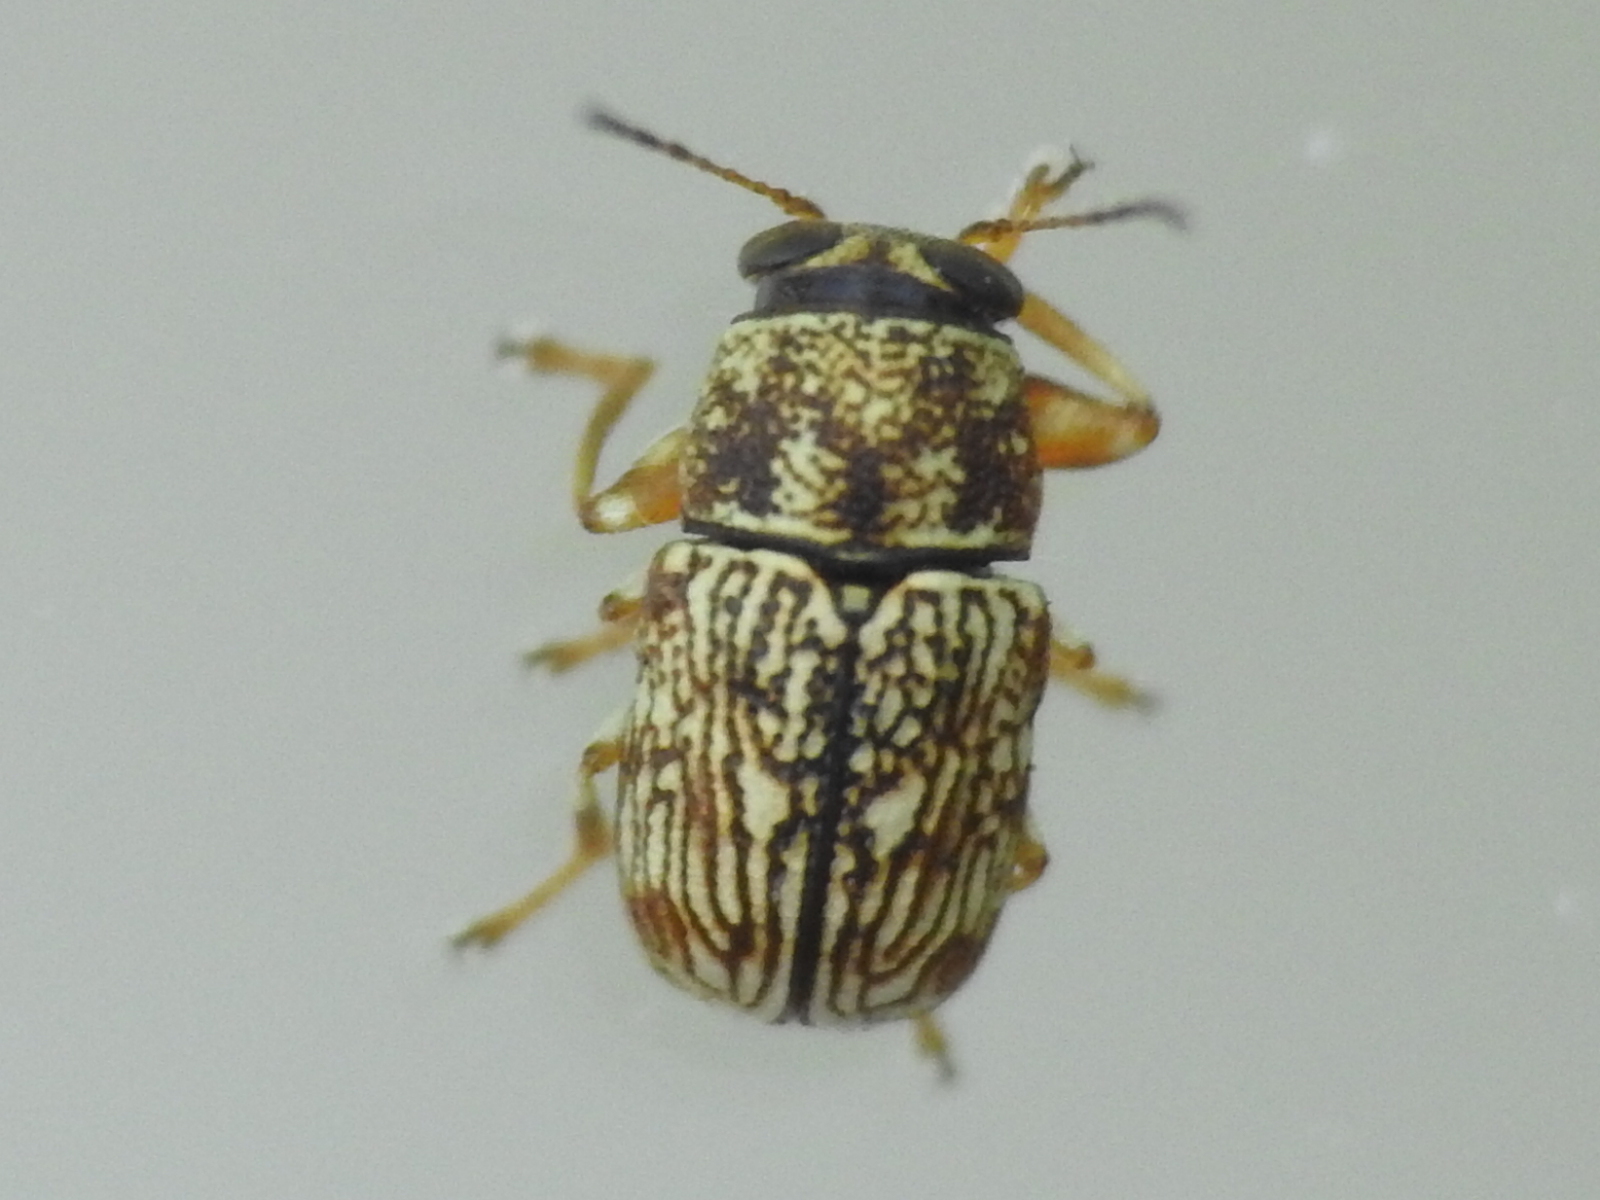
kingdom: Animalia
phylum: Arthropoda
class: Insecta
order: Coleoptera
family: Chrysomelidae
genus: Pachybrachis
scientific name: Pachybrachis brevicornis
